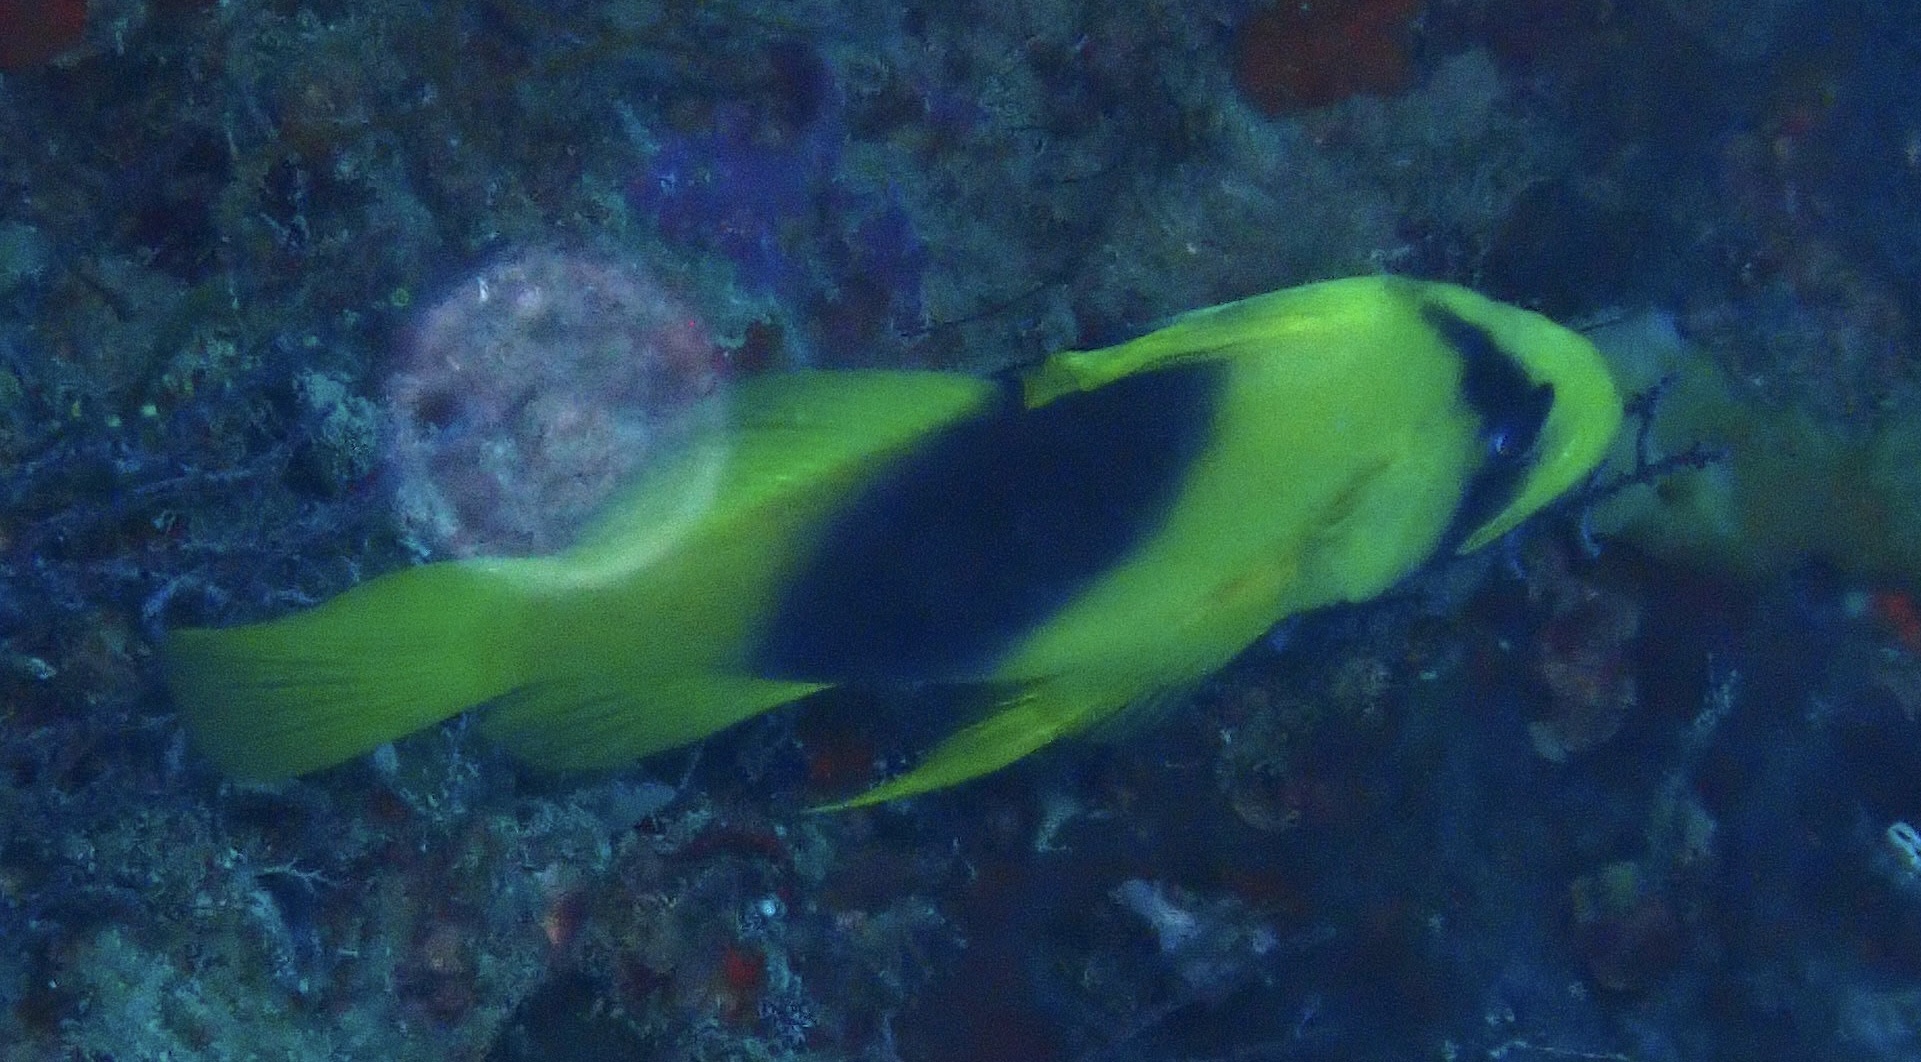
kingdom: Animalia
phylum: Chordata
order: Perciformes
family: Serranidae
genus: Diploprion
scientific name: Diploprion bifasciatum
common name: Barred soapfish
